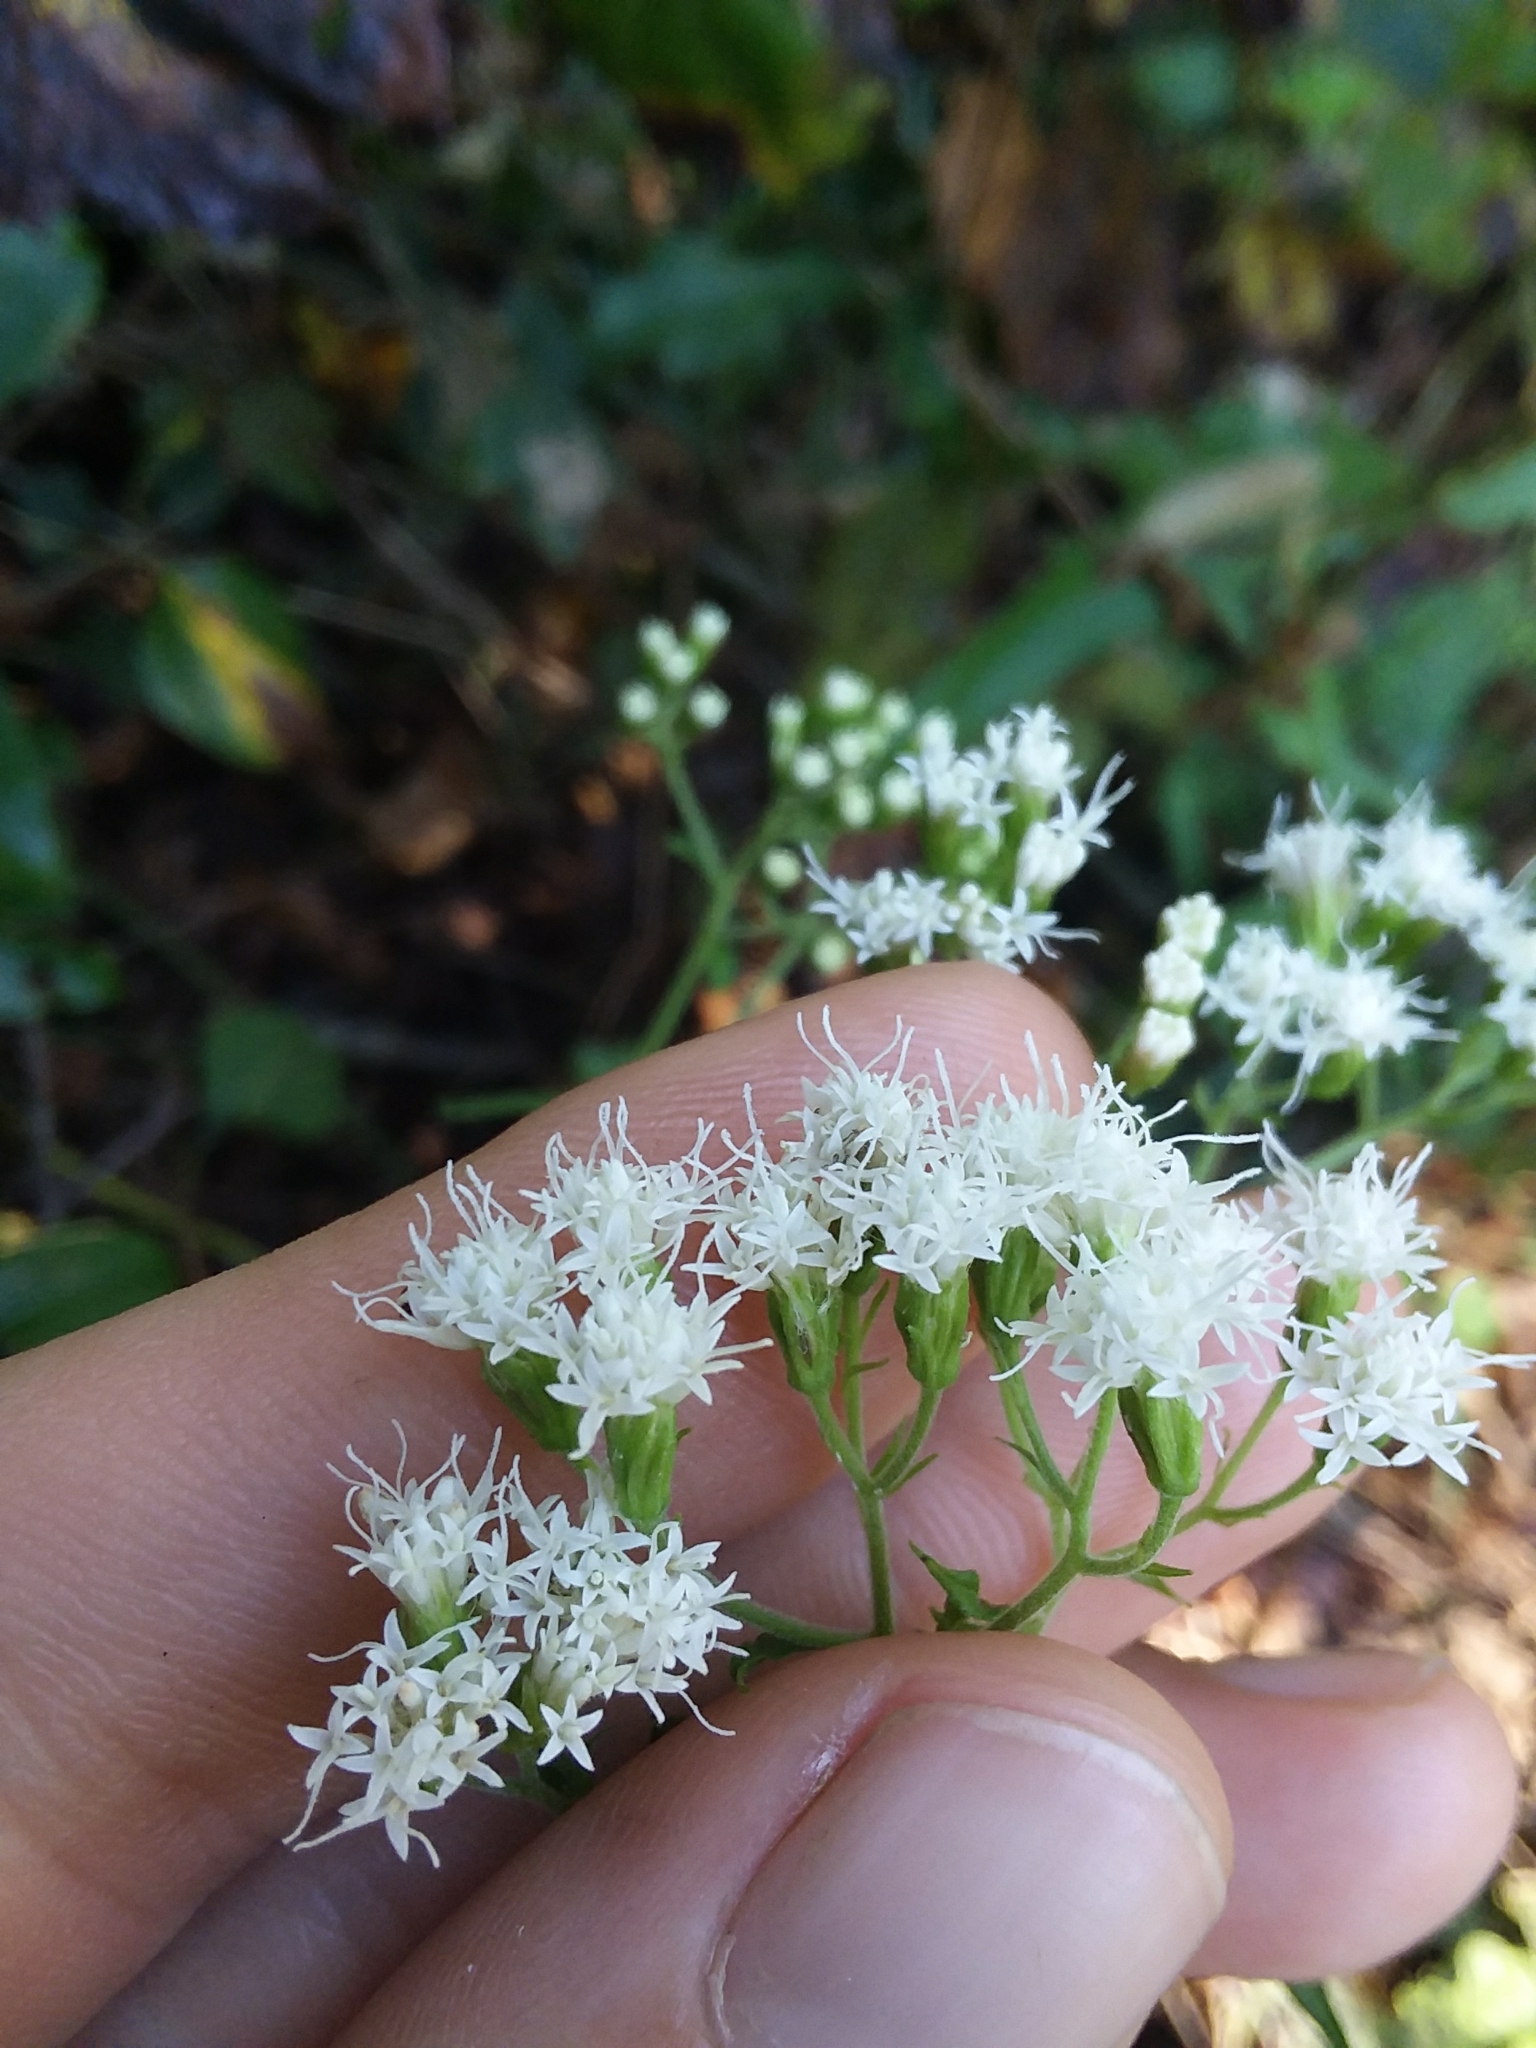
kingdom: Plantae
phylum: Tracheophyta
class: Magnoliopsida
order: Asterales
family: Asteraceae
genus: Ageratina
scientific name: Ageratina altissima
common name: White snakeroot
